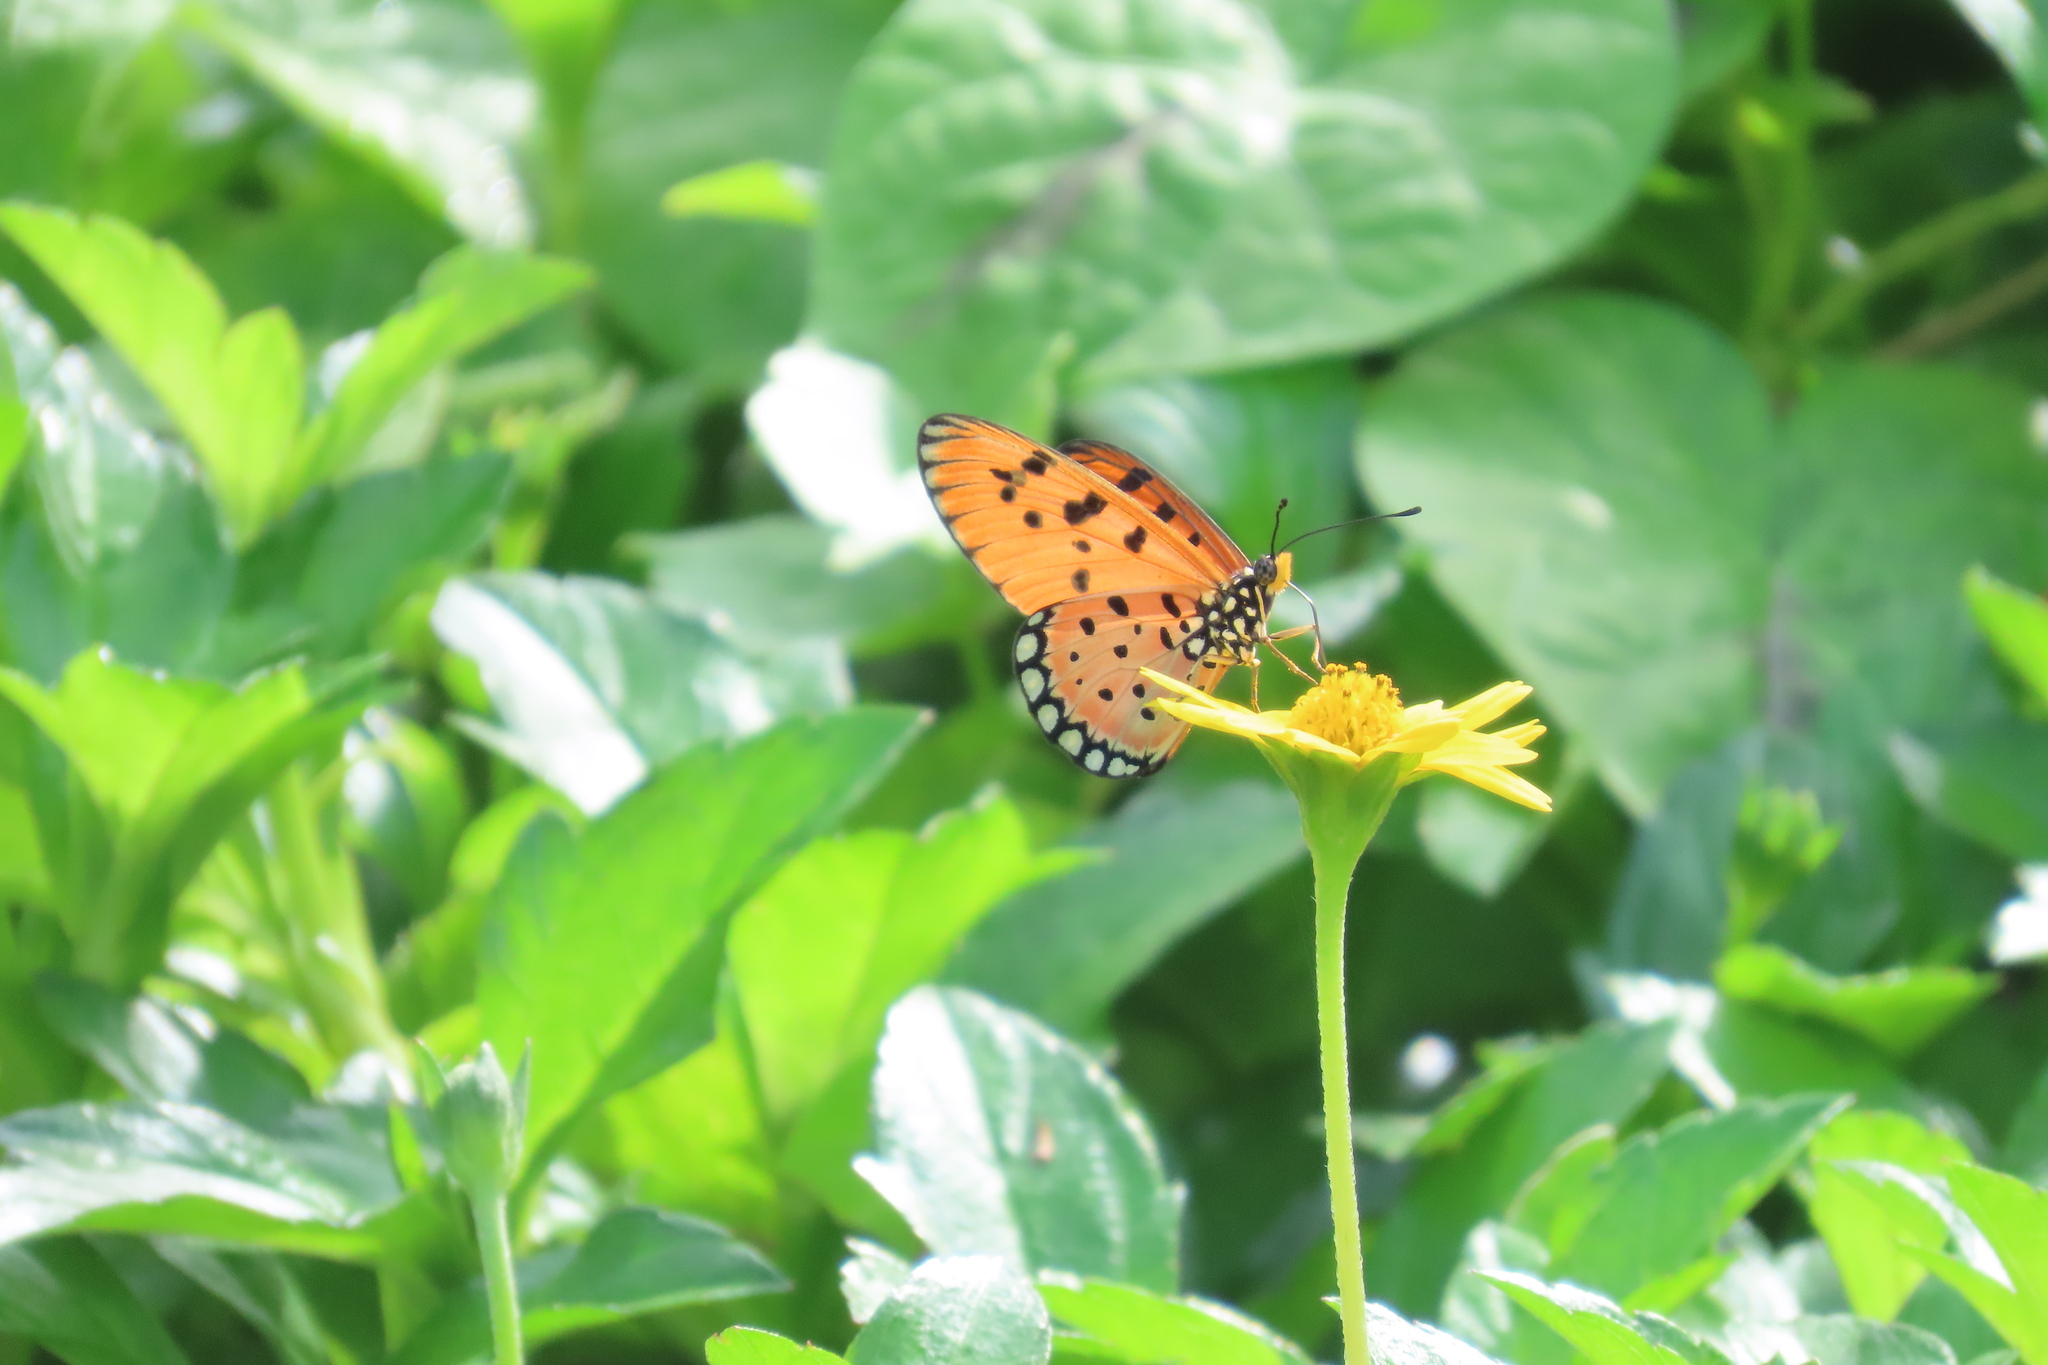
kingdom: Animalia
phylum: Arthropoda
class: Insecta
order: Lepidoptera
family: Nymphalidae
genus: Acraea
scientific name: Acraea terpsicore
